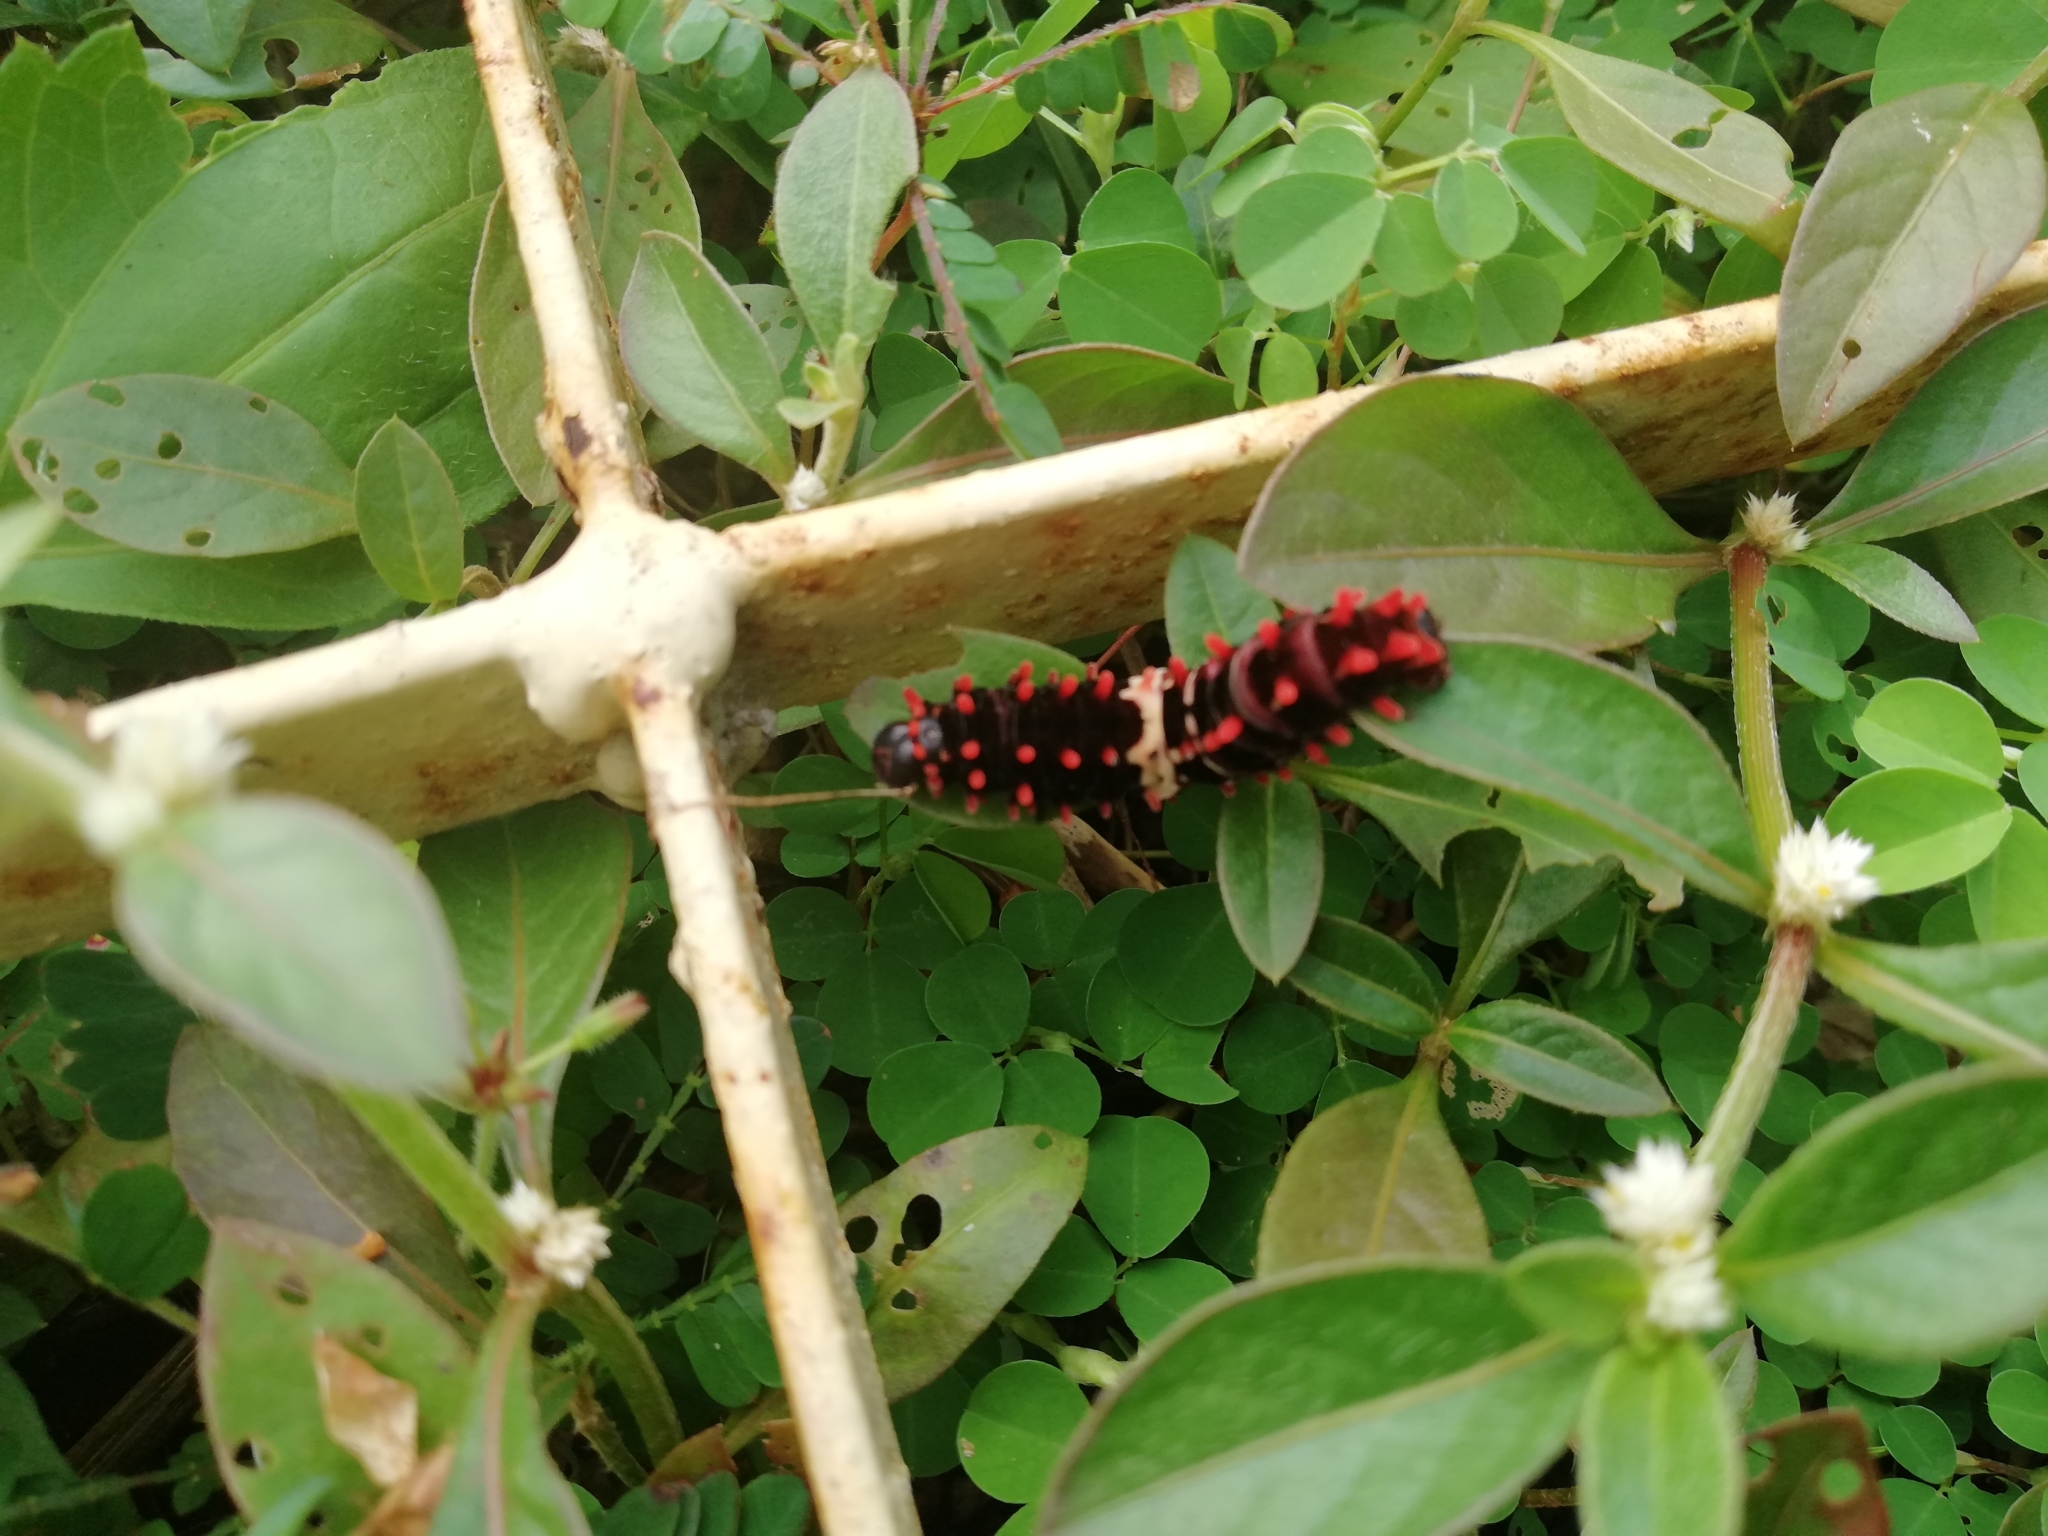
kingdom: Animalia
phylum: Arthropoda
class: Insecta
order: Lepidoptera
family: Papilionidae
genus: Pachliopta
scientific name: Pachliopta aristolochiae
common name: Common rose
